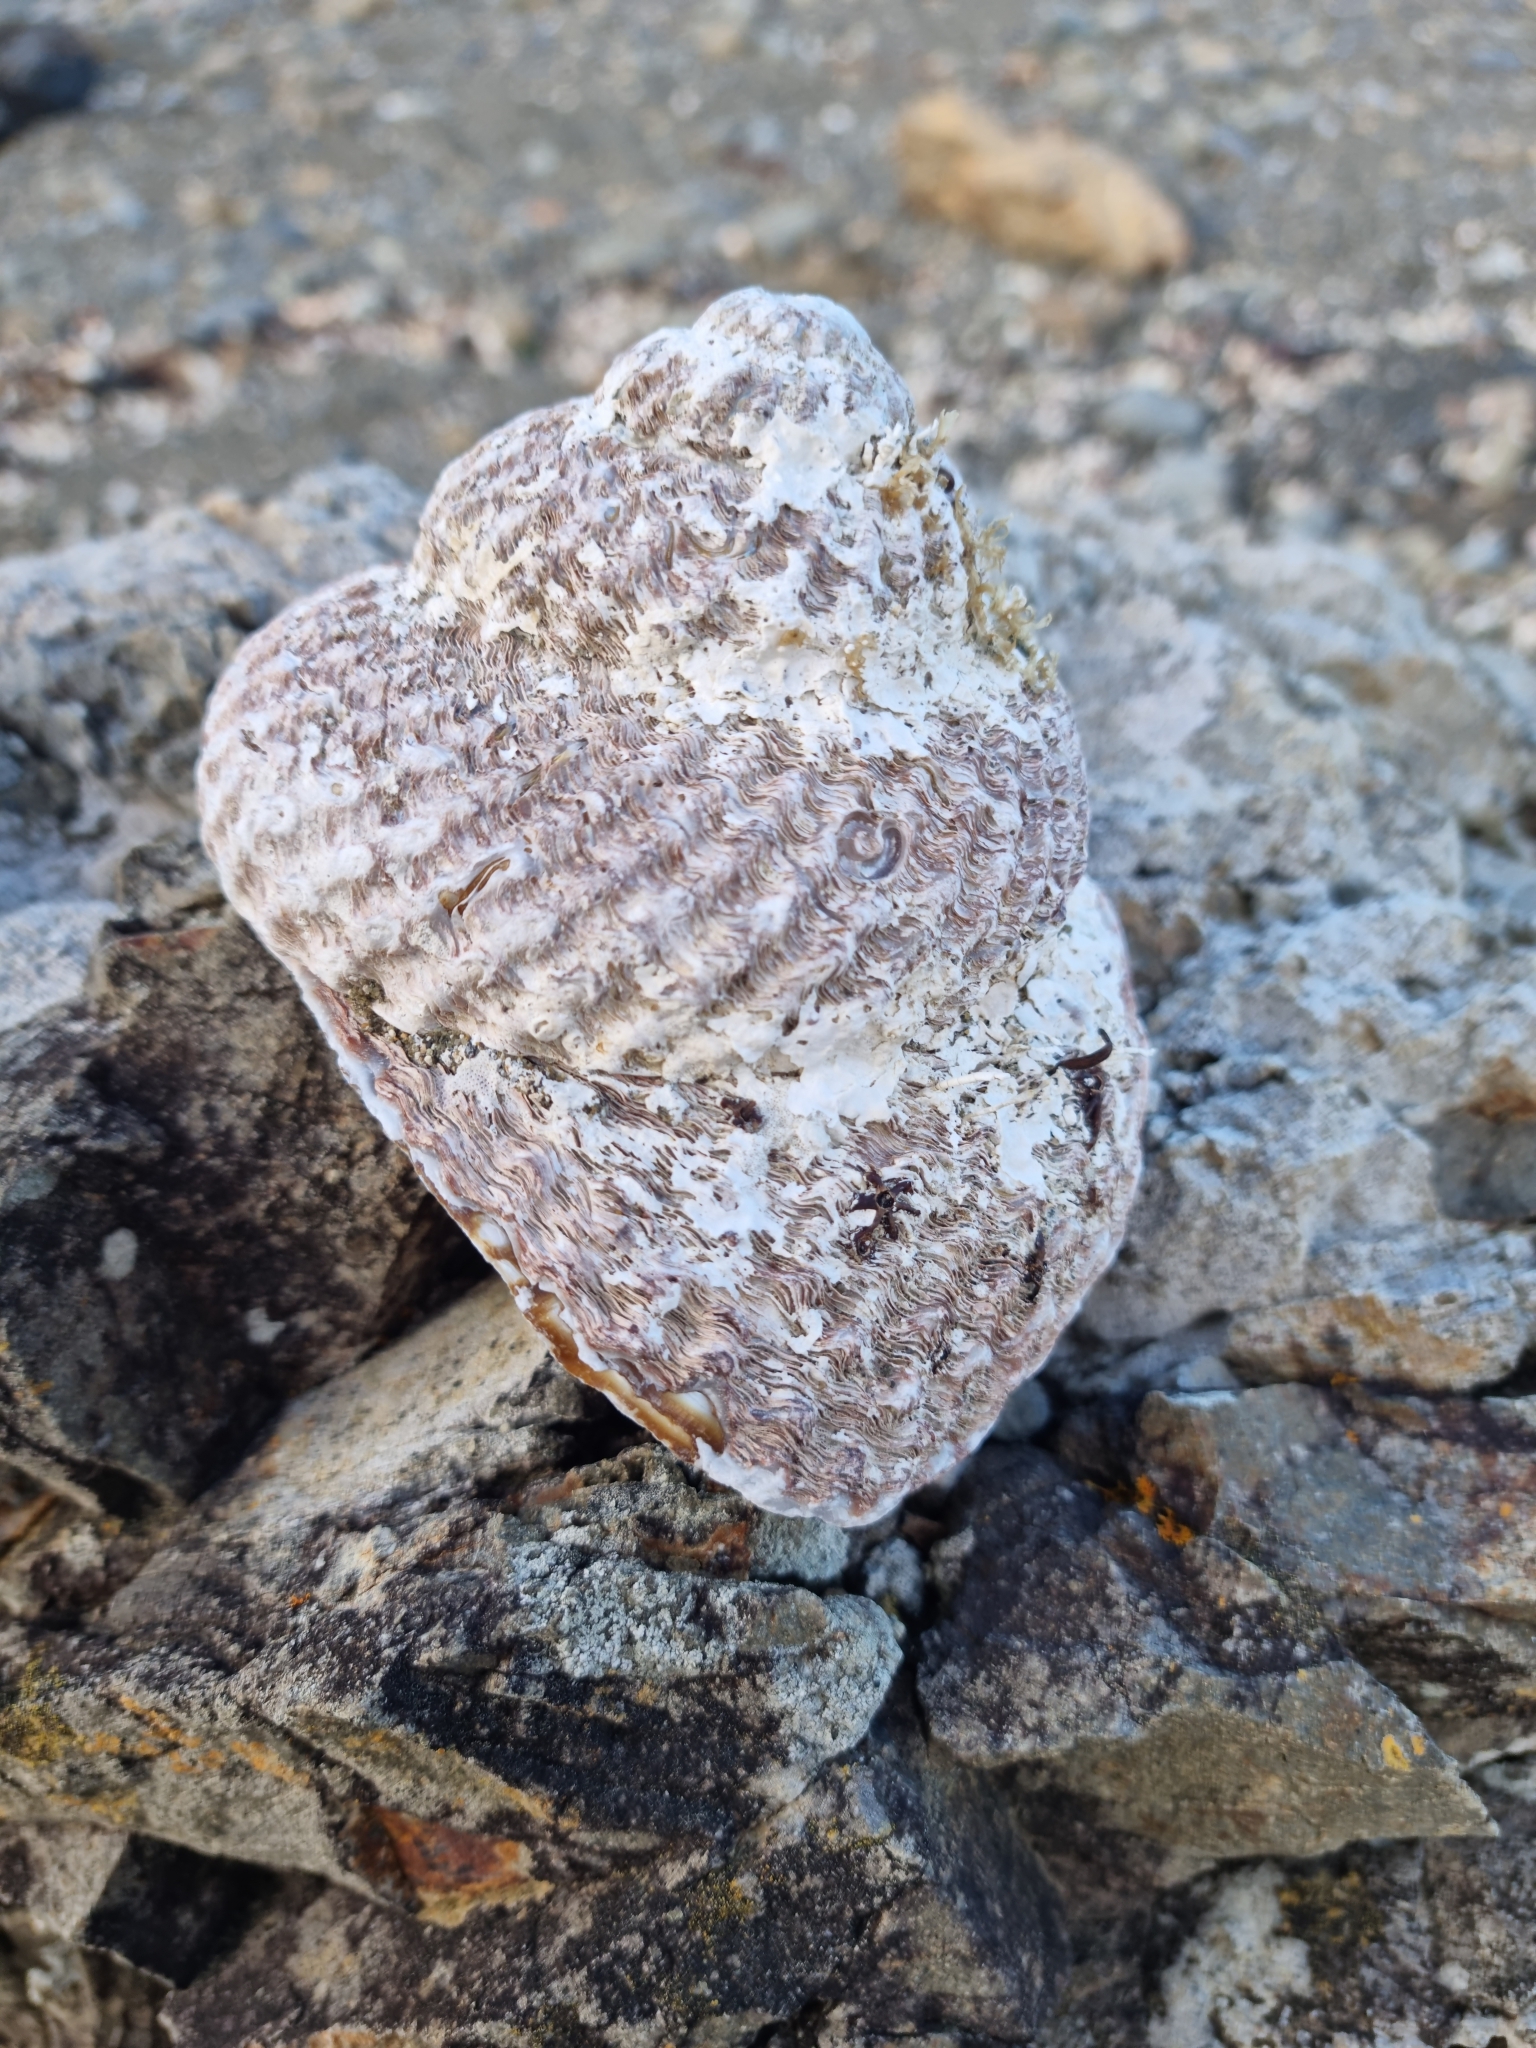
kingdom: Animalia
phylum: Mollusca
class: Gastropoda
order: Trochida
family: Turbinidae
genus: Cookia
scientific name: Cookia sulcata
